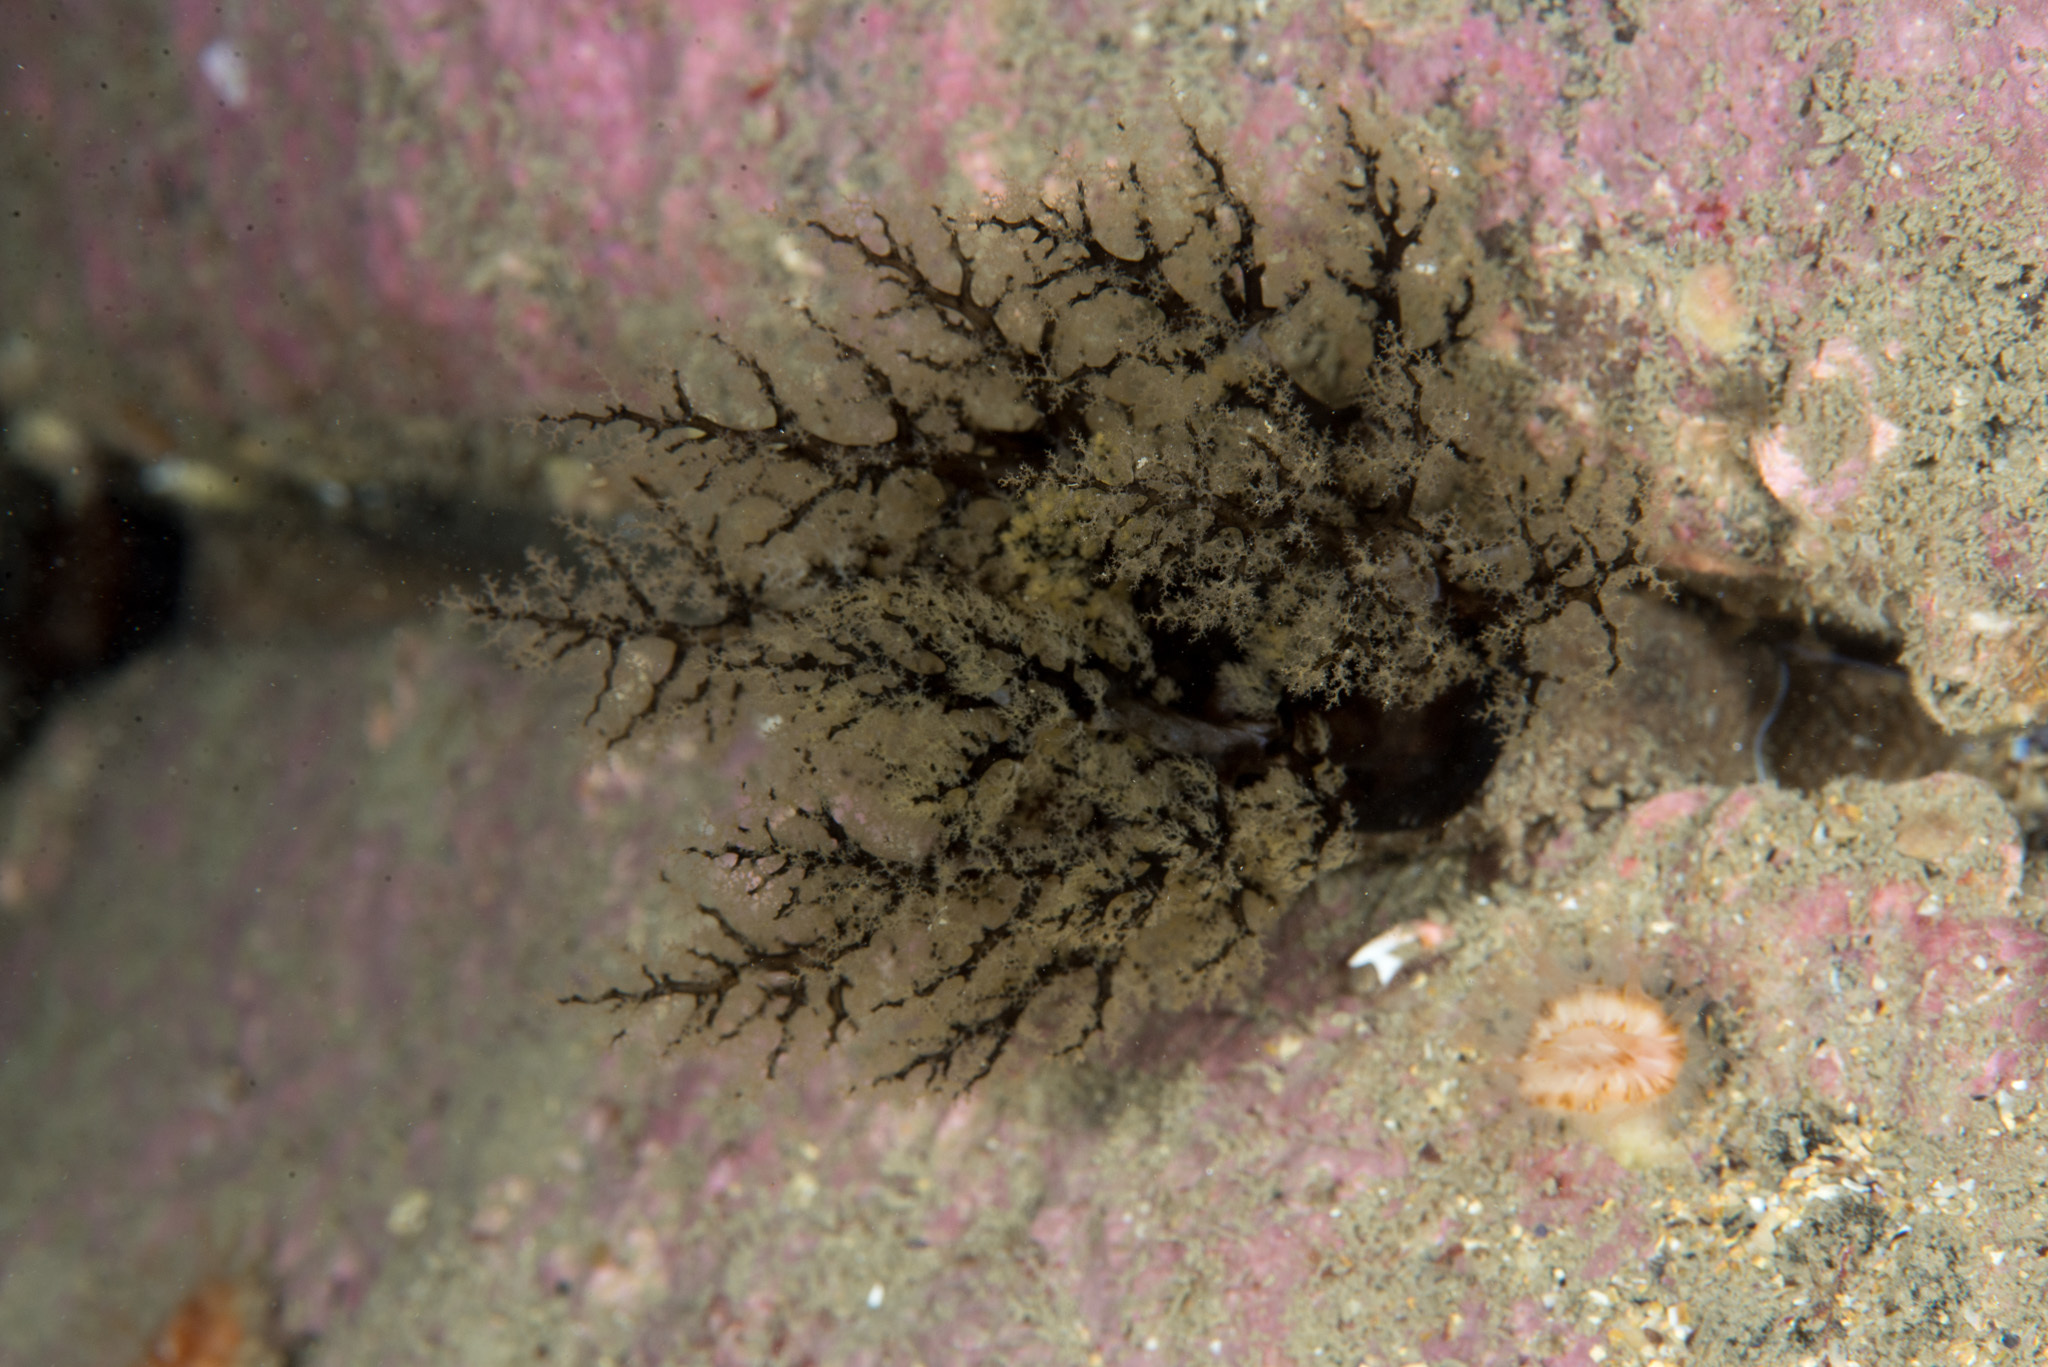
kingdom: Animalia
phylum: Echinodermata
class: Holothuroidea
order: Dendrochirotida
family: Cucumariidae
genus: Aslia
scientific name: Aslia lefevrei
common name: Brown sea cucumber
